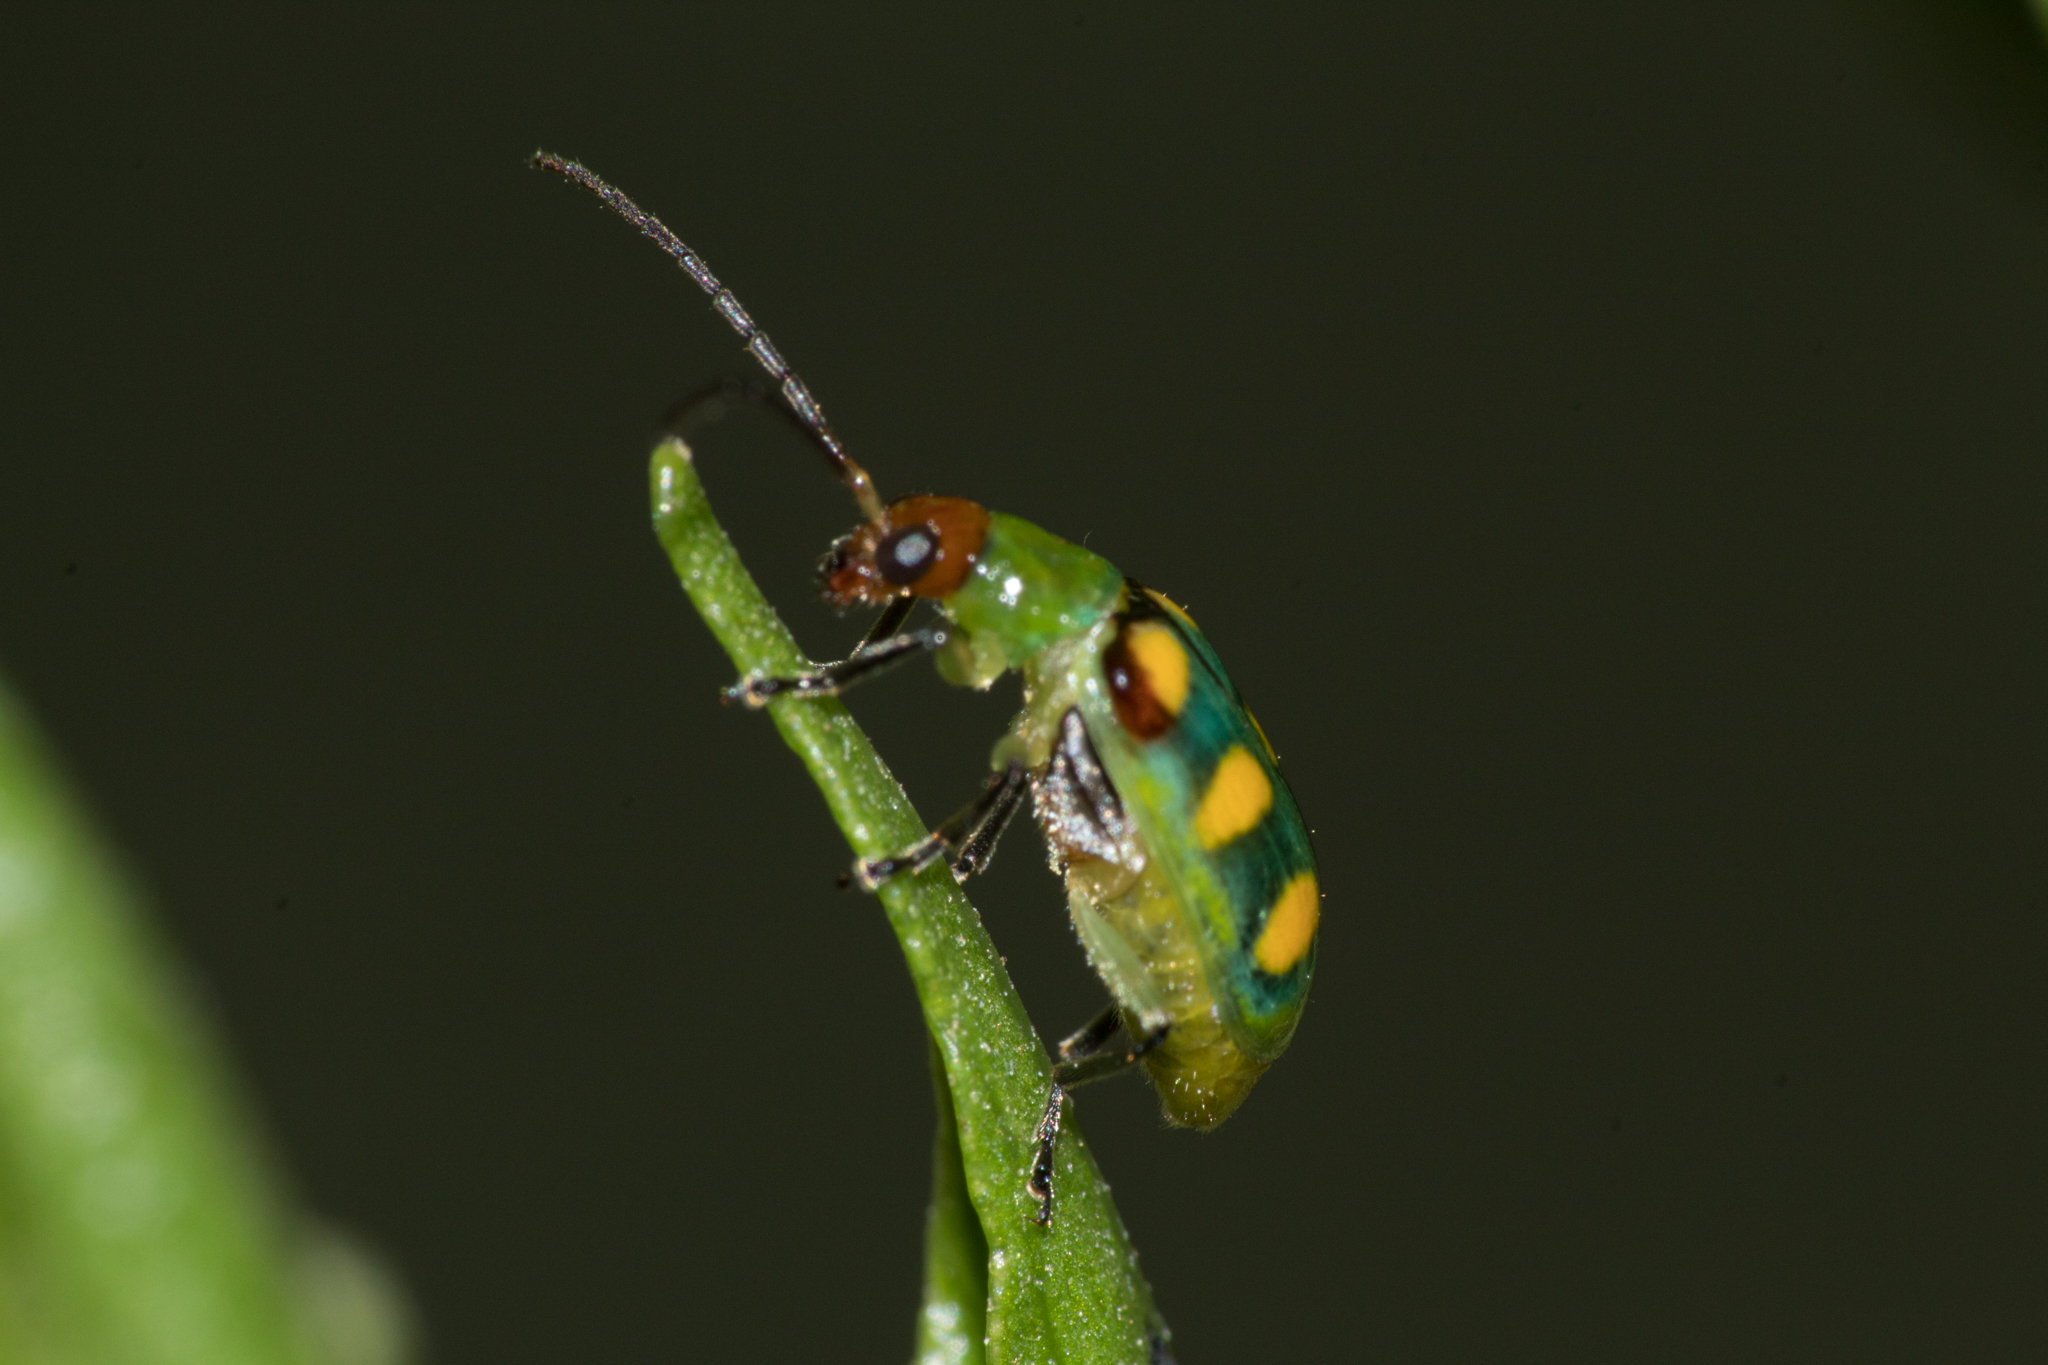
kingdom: Animalia
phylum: Arthropoda
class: Insecta
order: Coleoptera
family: Chrysomelidae
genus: Diabrotica
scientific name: Diabrotica speciosa
